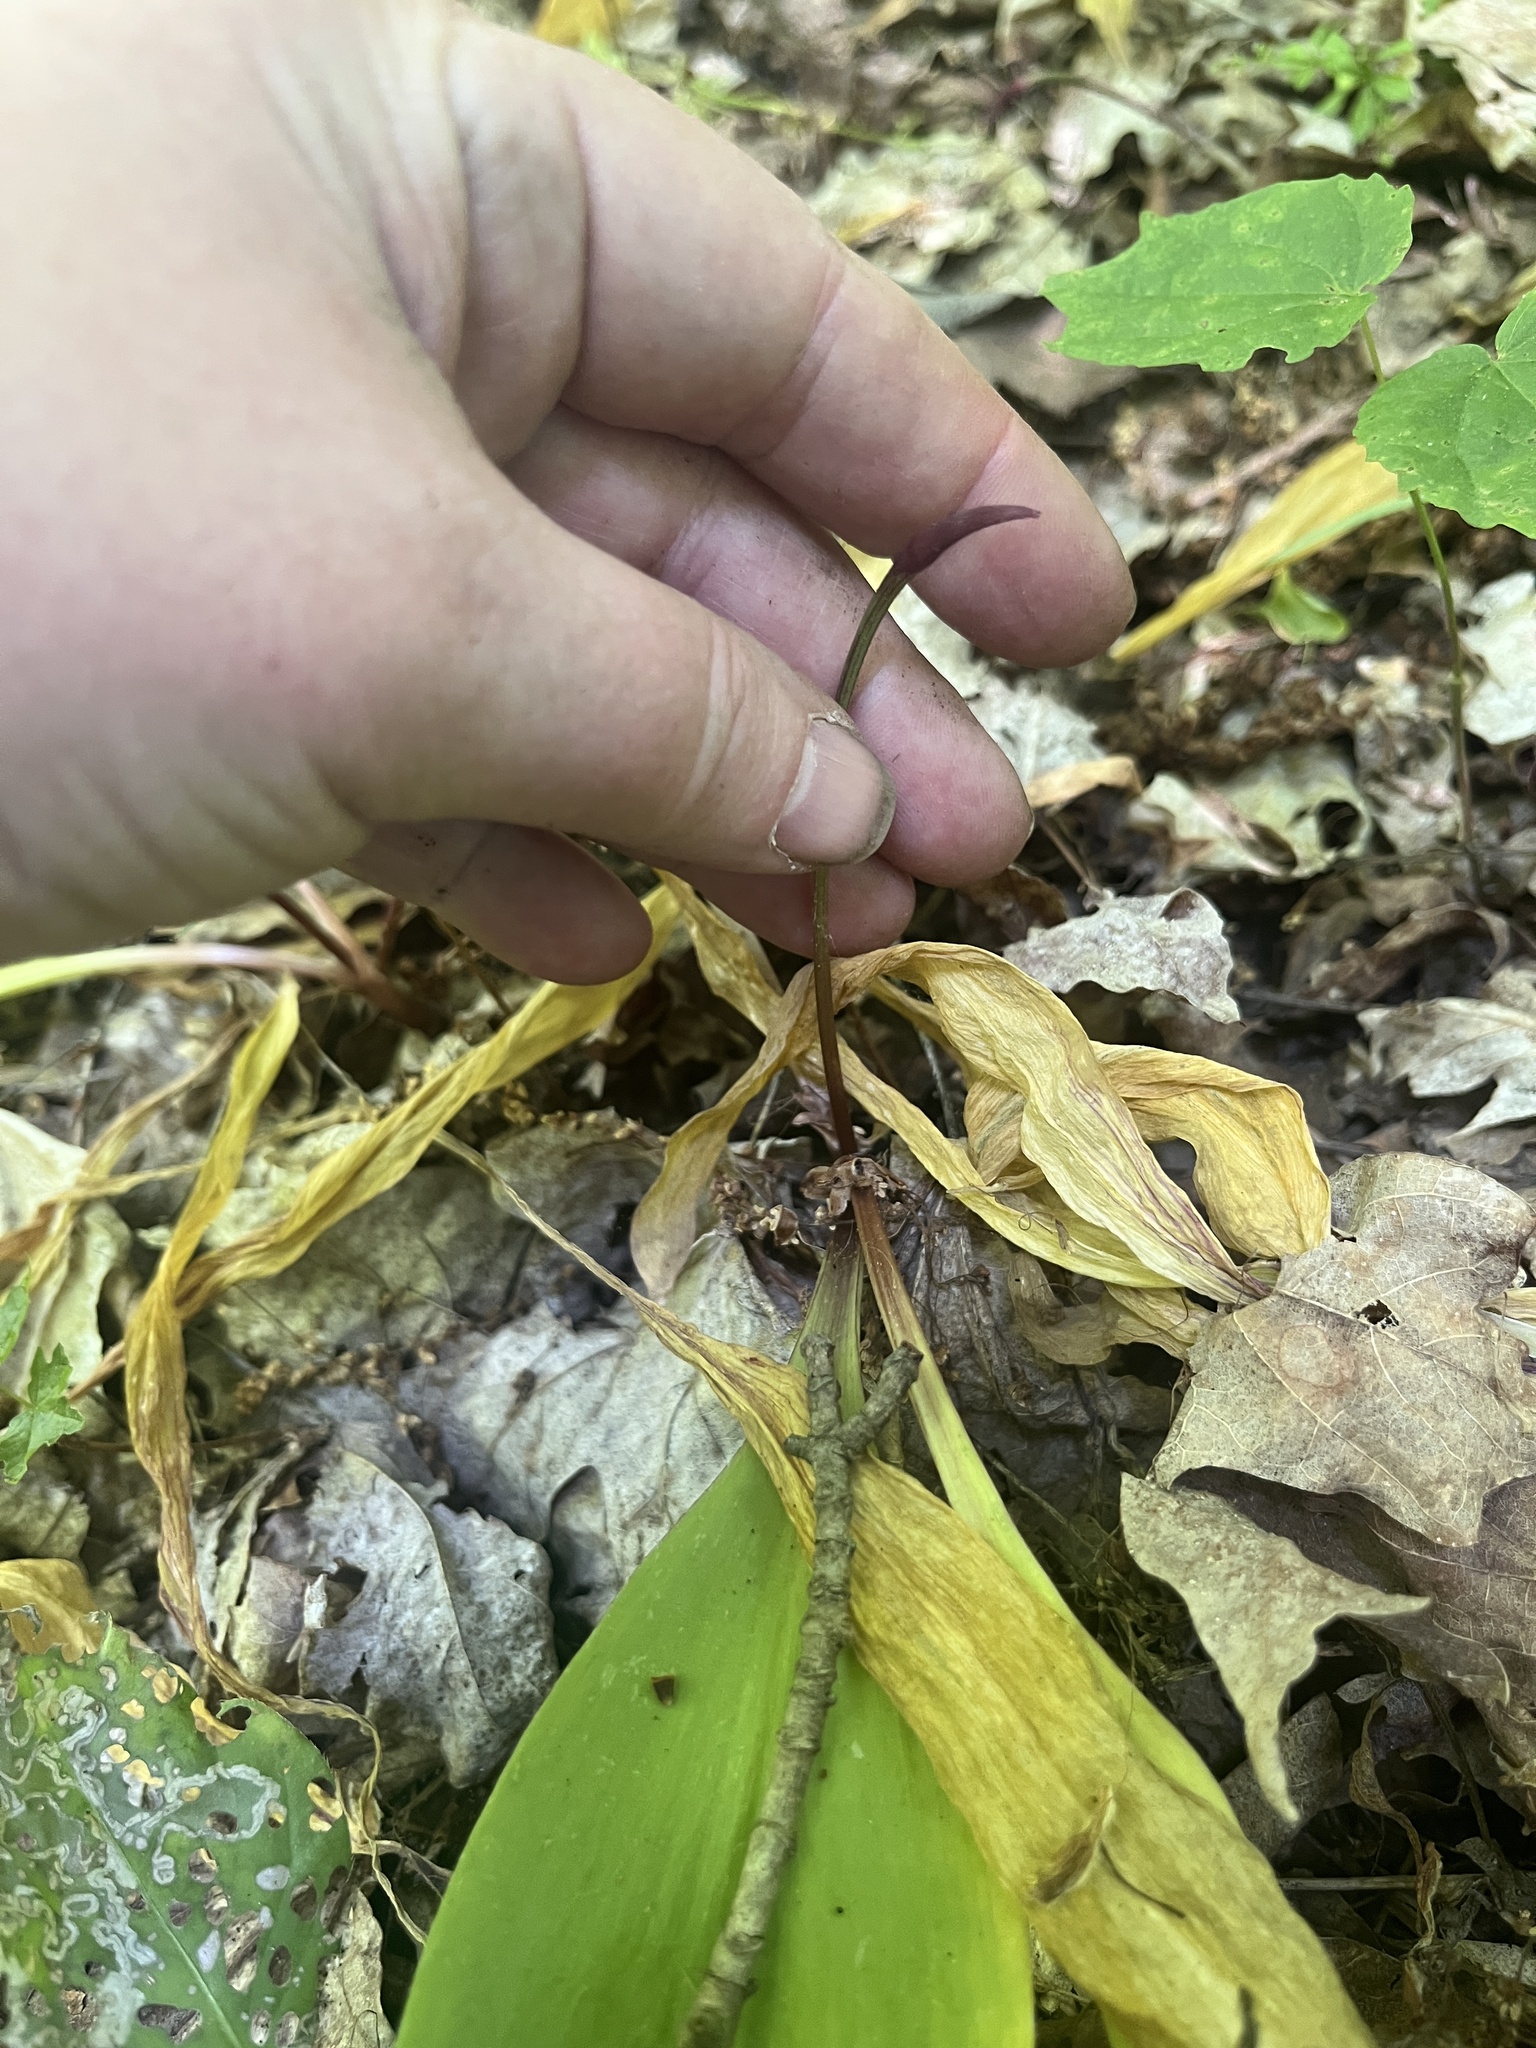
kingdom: Plantae
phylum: Tracheophyta
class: Liliopsida
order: Asparagales
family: Amaryllidaceae
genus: Allium
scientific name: Allium tricoccum
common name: Ramp
